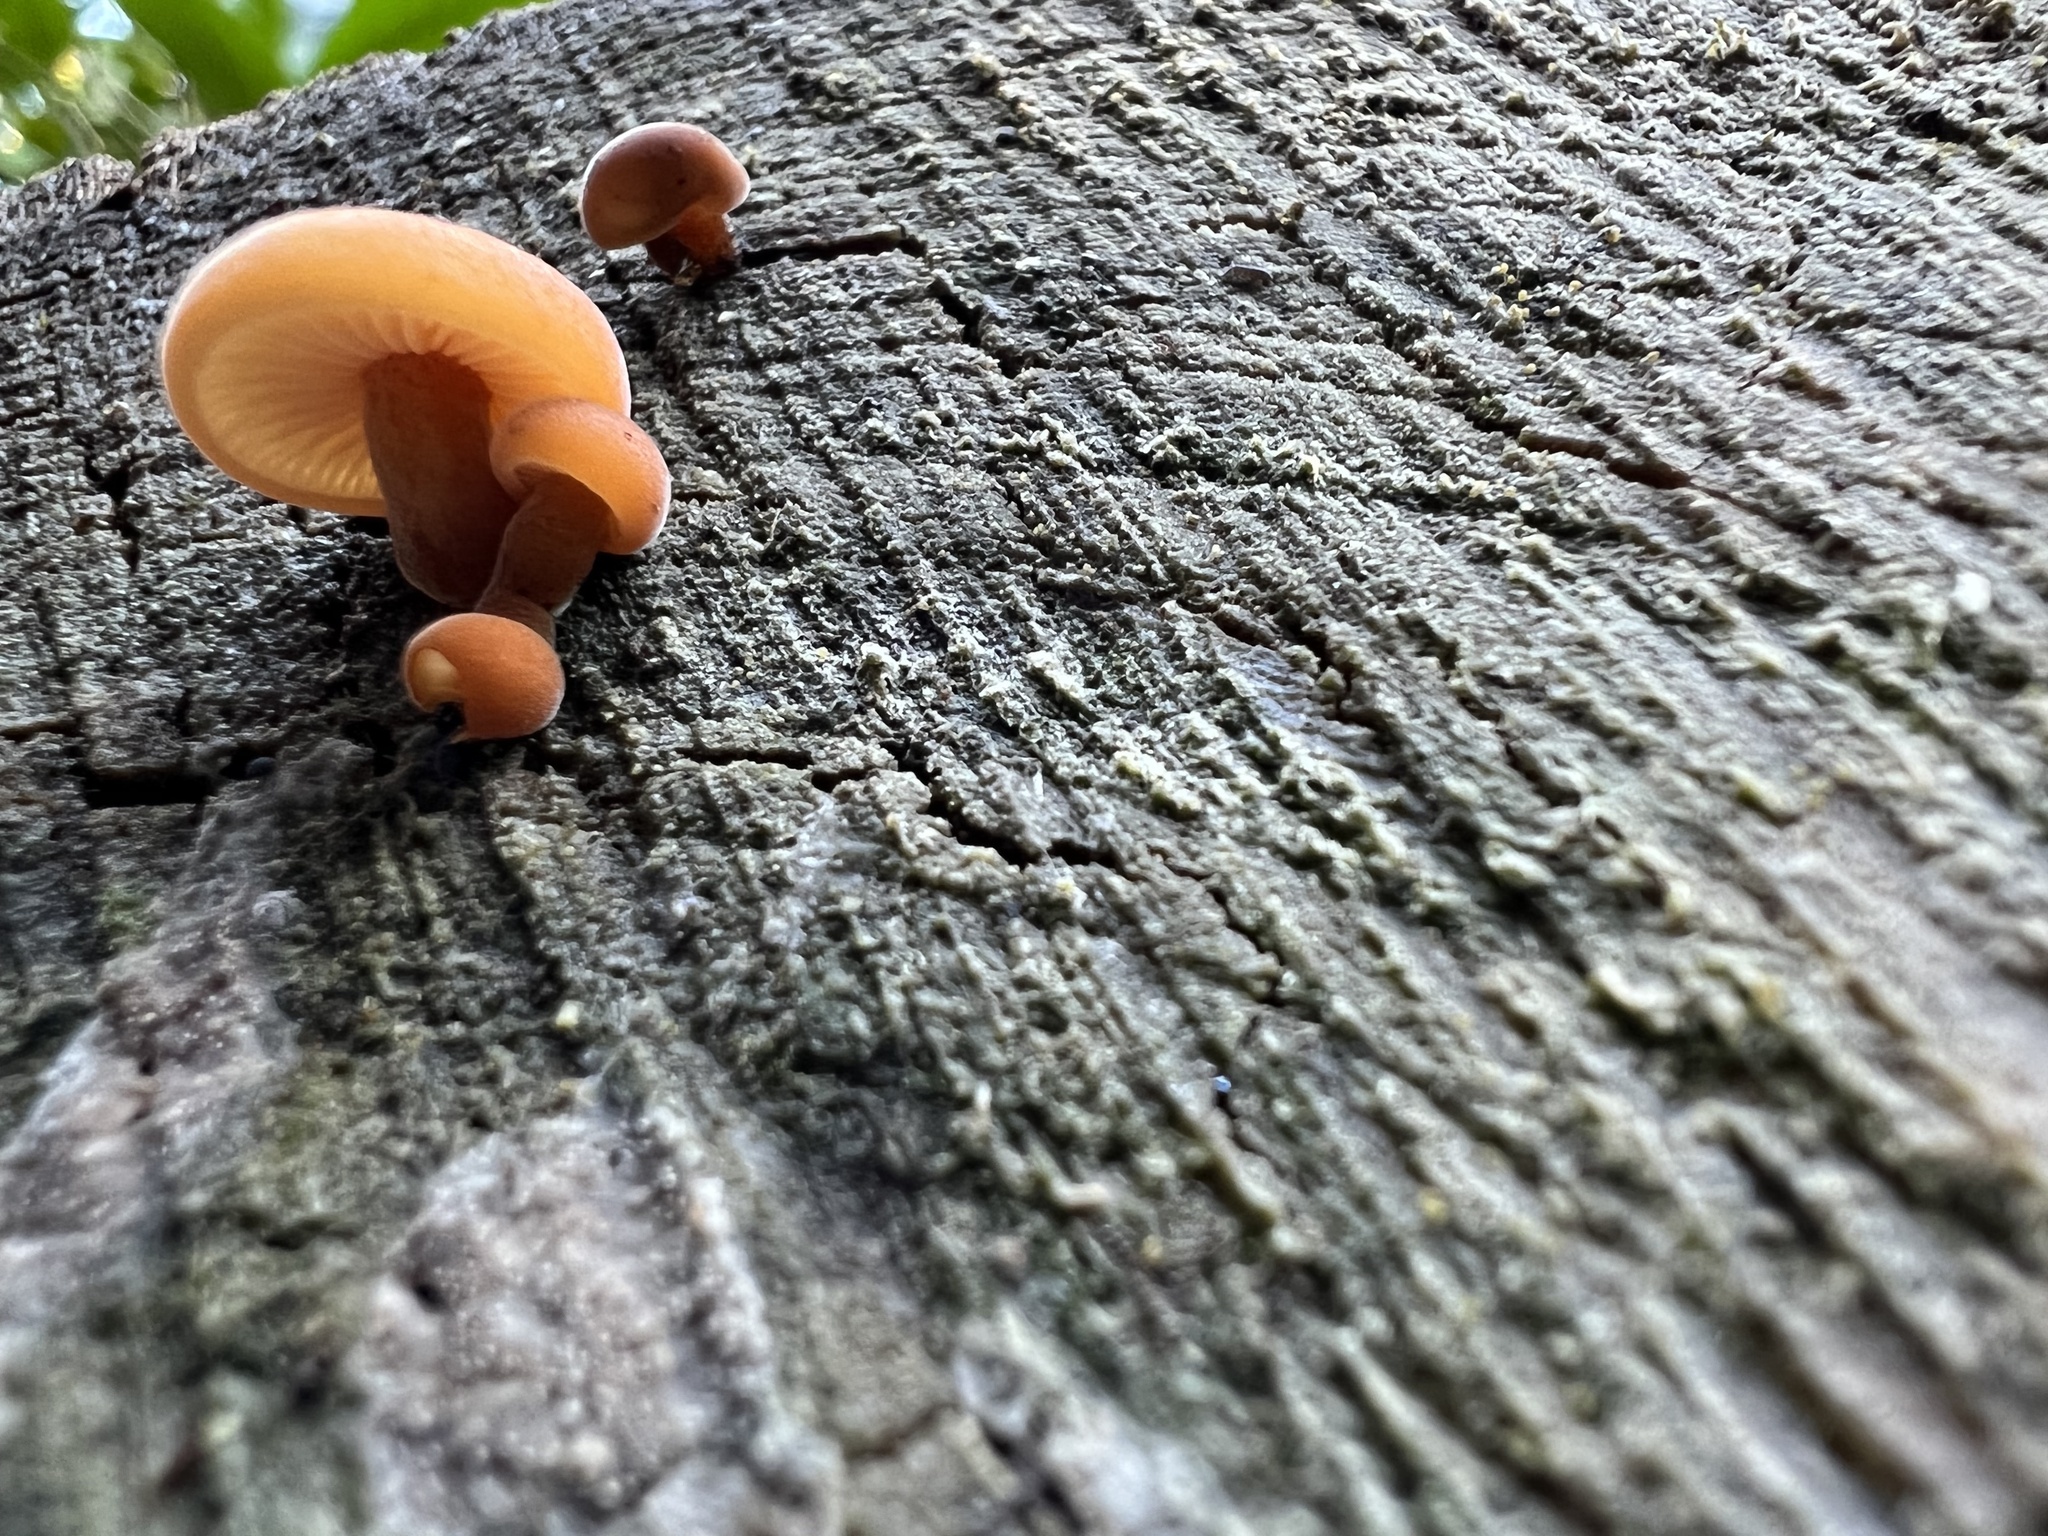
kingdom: Fungi
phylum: Basidiomycota
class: Agaricomycetes
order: Agaricales
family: Physalacriaceae
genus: Flammulina
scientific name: Flammulina velutipes
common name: Velvet shank
